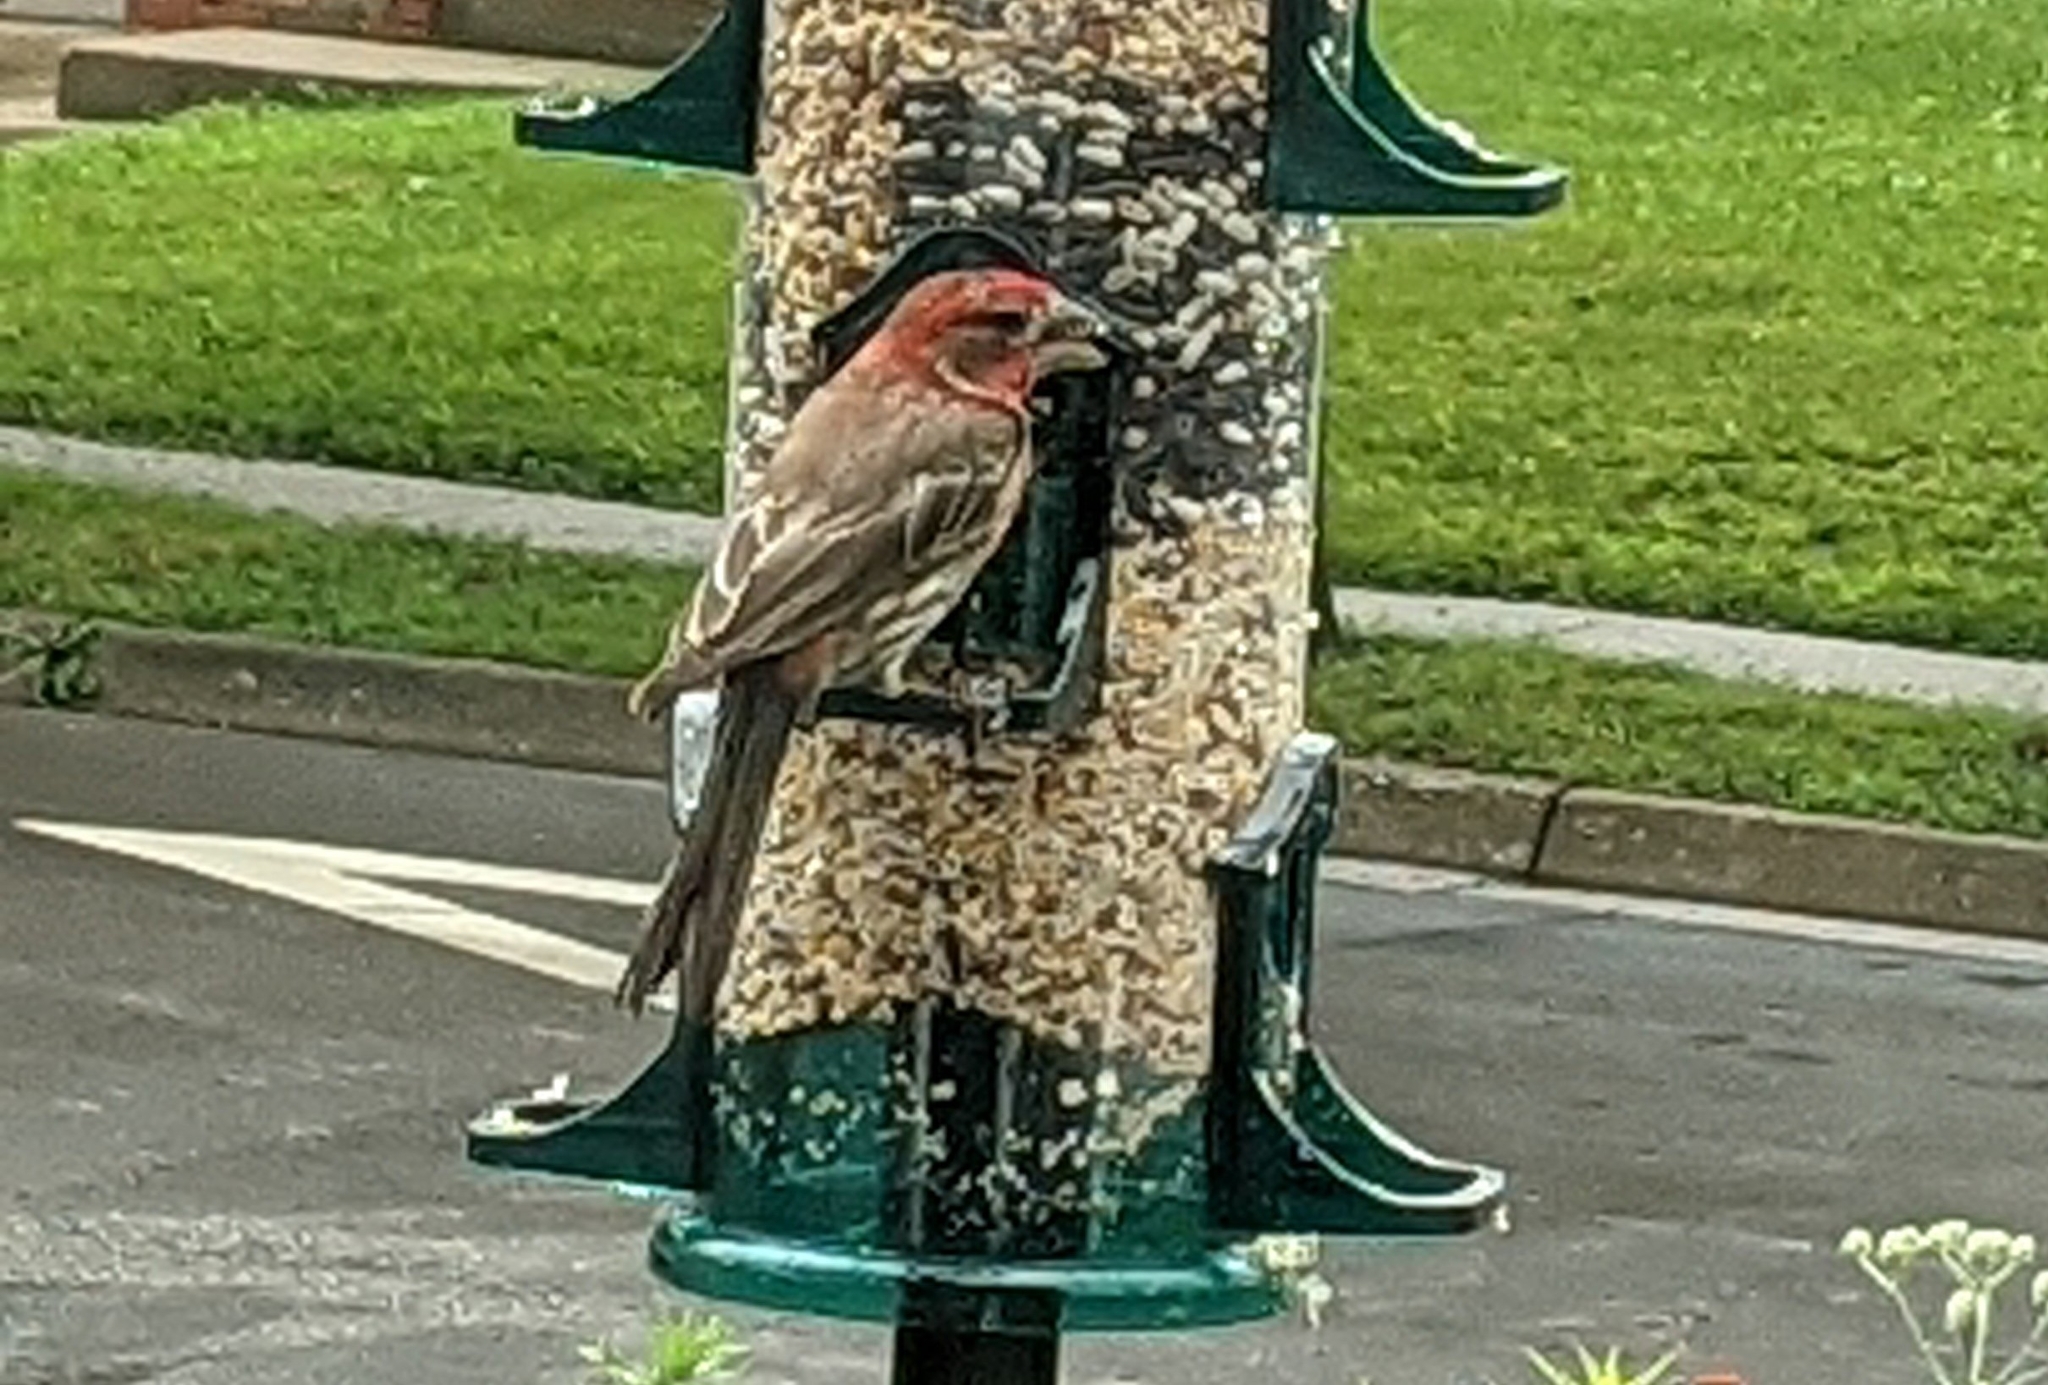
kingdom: Animalia
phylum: Chordata
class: Aves
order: Passeriformes
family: Fringillidae
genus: Haemorhous
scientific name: Haemorhous mexicanus
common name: House finch
